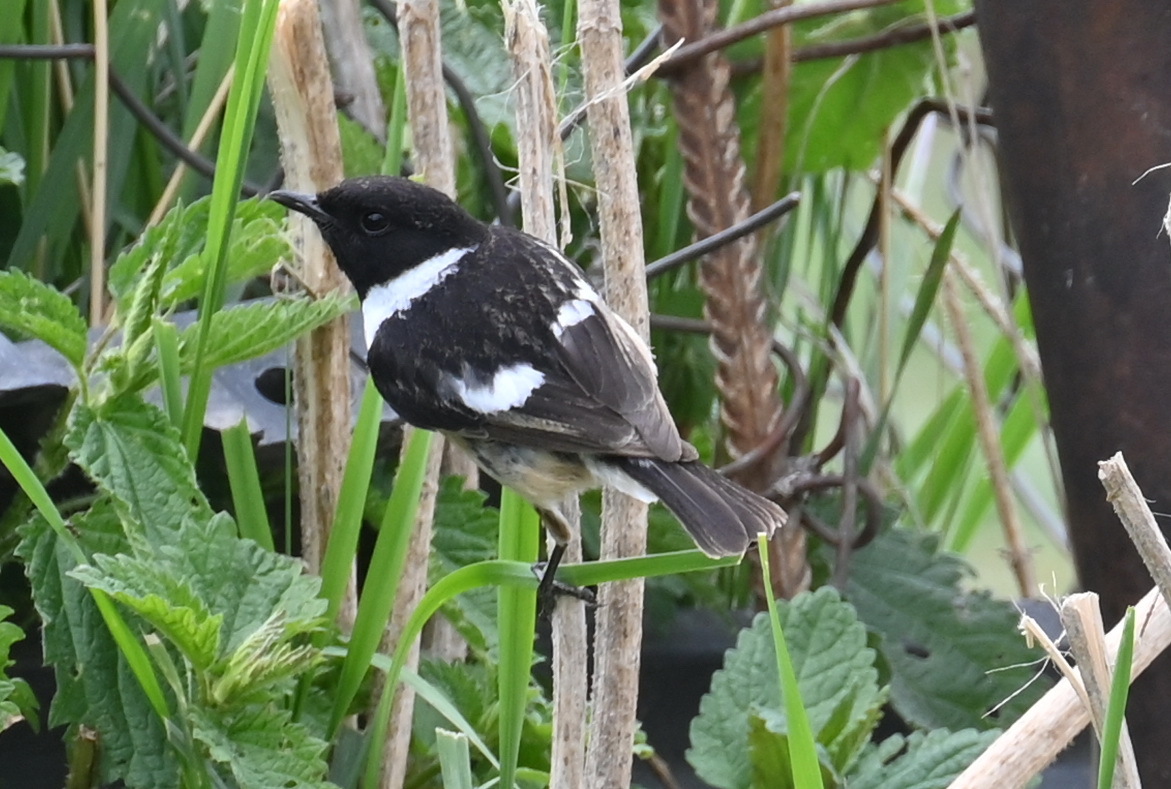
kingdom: Animalia
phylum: Chordata
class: Aves
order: Passeriformes
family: Muscicapidae
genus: Saxicola
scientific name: Saxicola rubicola
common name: European stonechat
